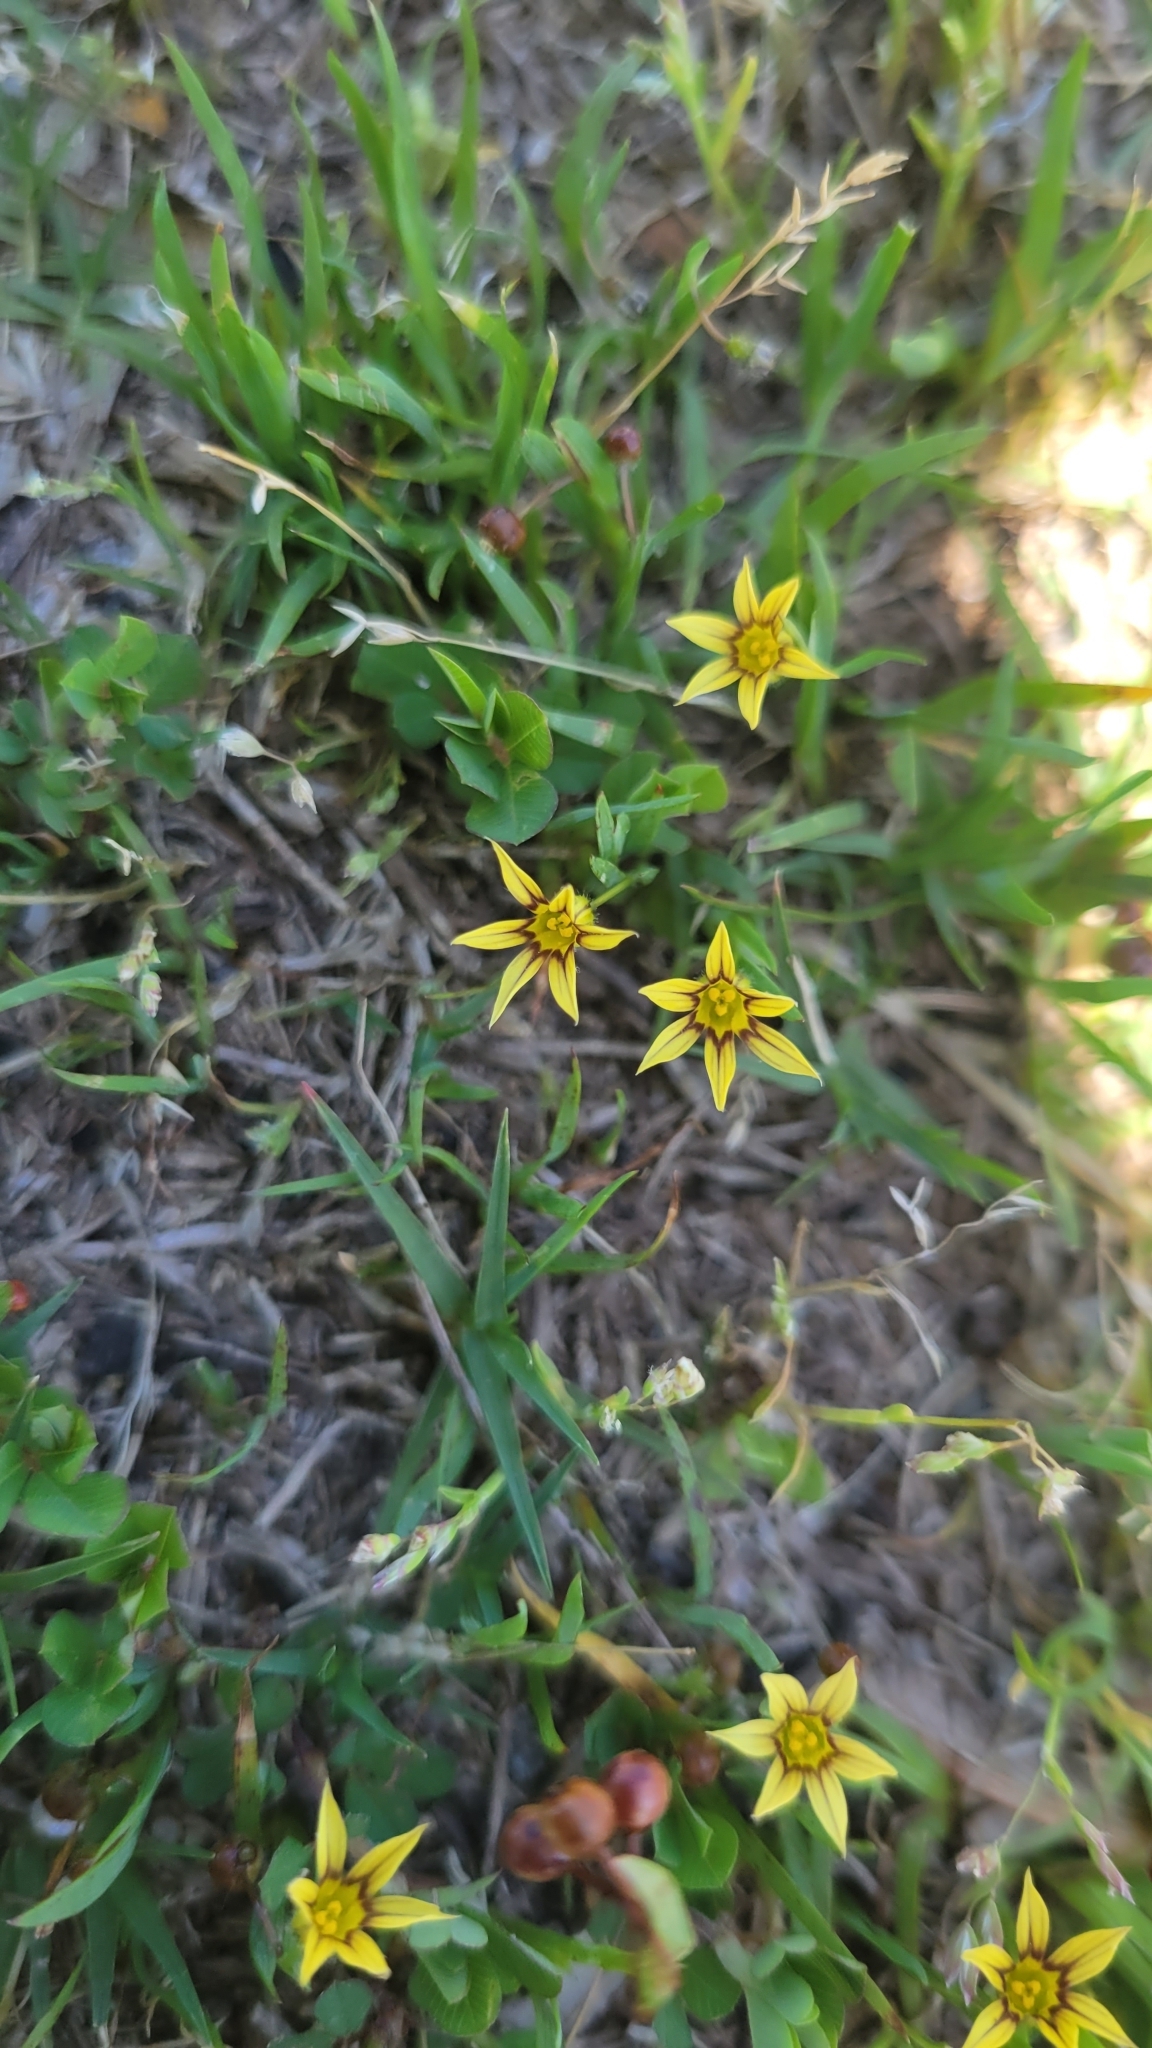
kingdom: Plantae
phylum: Tracheophyta
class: Liliopsida
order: Asparagales
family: Iridaceae
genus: Sisyrinchium
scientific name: Sisyrinchium micranthum
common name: Bermuda pigroot
